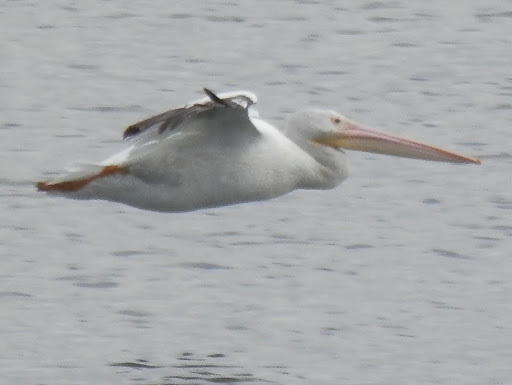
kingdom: Animalia
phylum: Chordata
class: Aves
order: Pelecaniformes
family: Pelecanidae
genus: Pelecanus
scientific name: Pelecanus erythrorhynchos
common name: American white pelican
